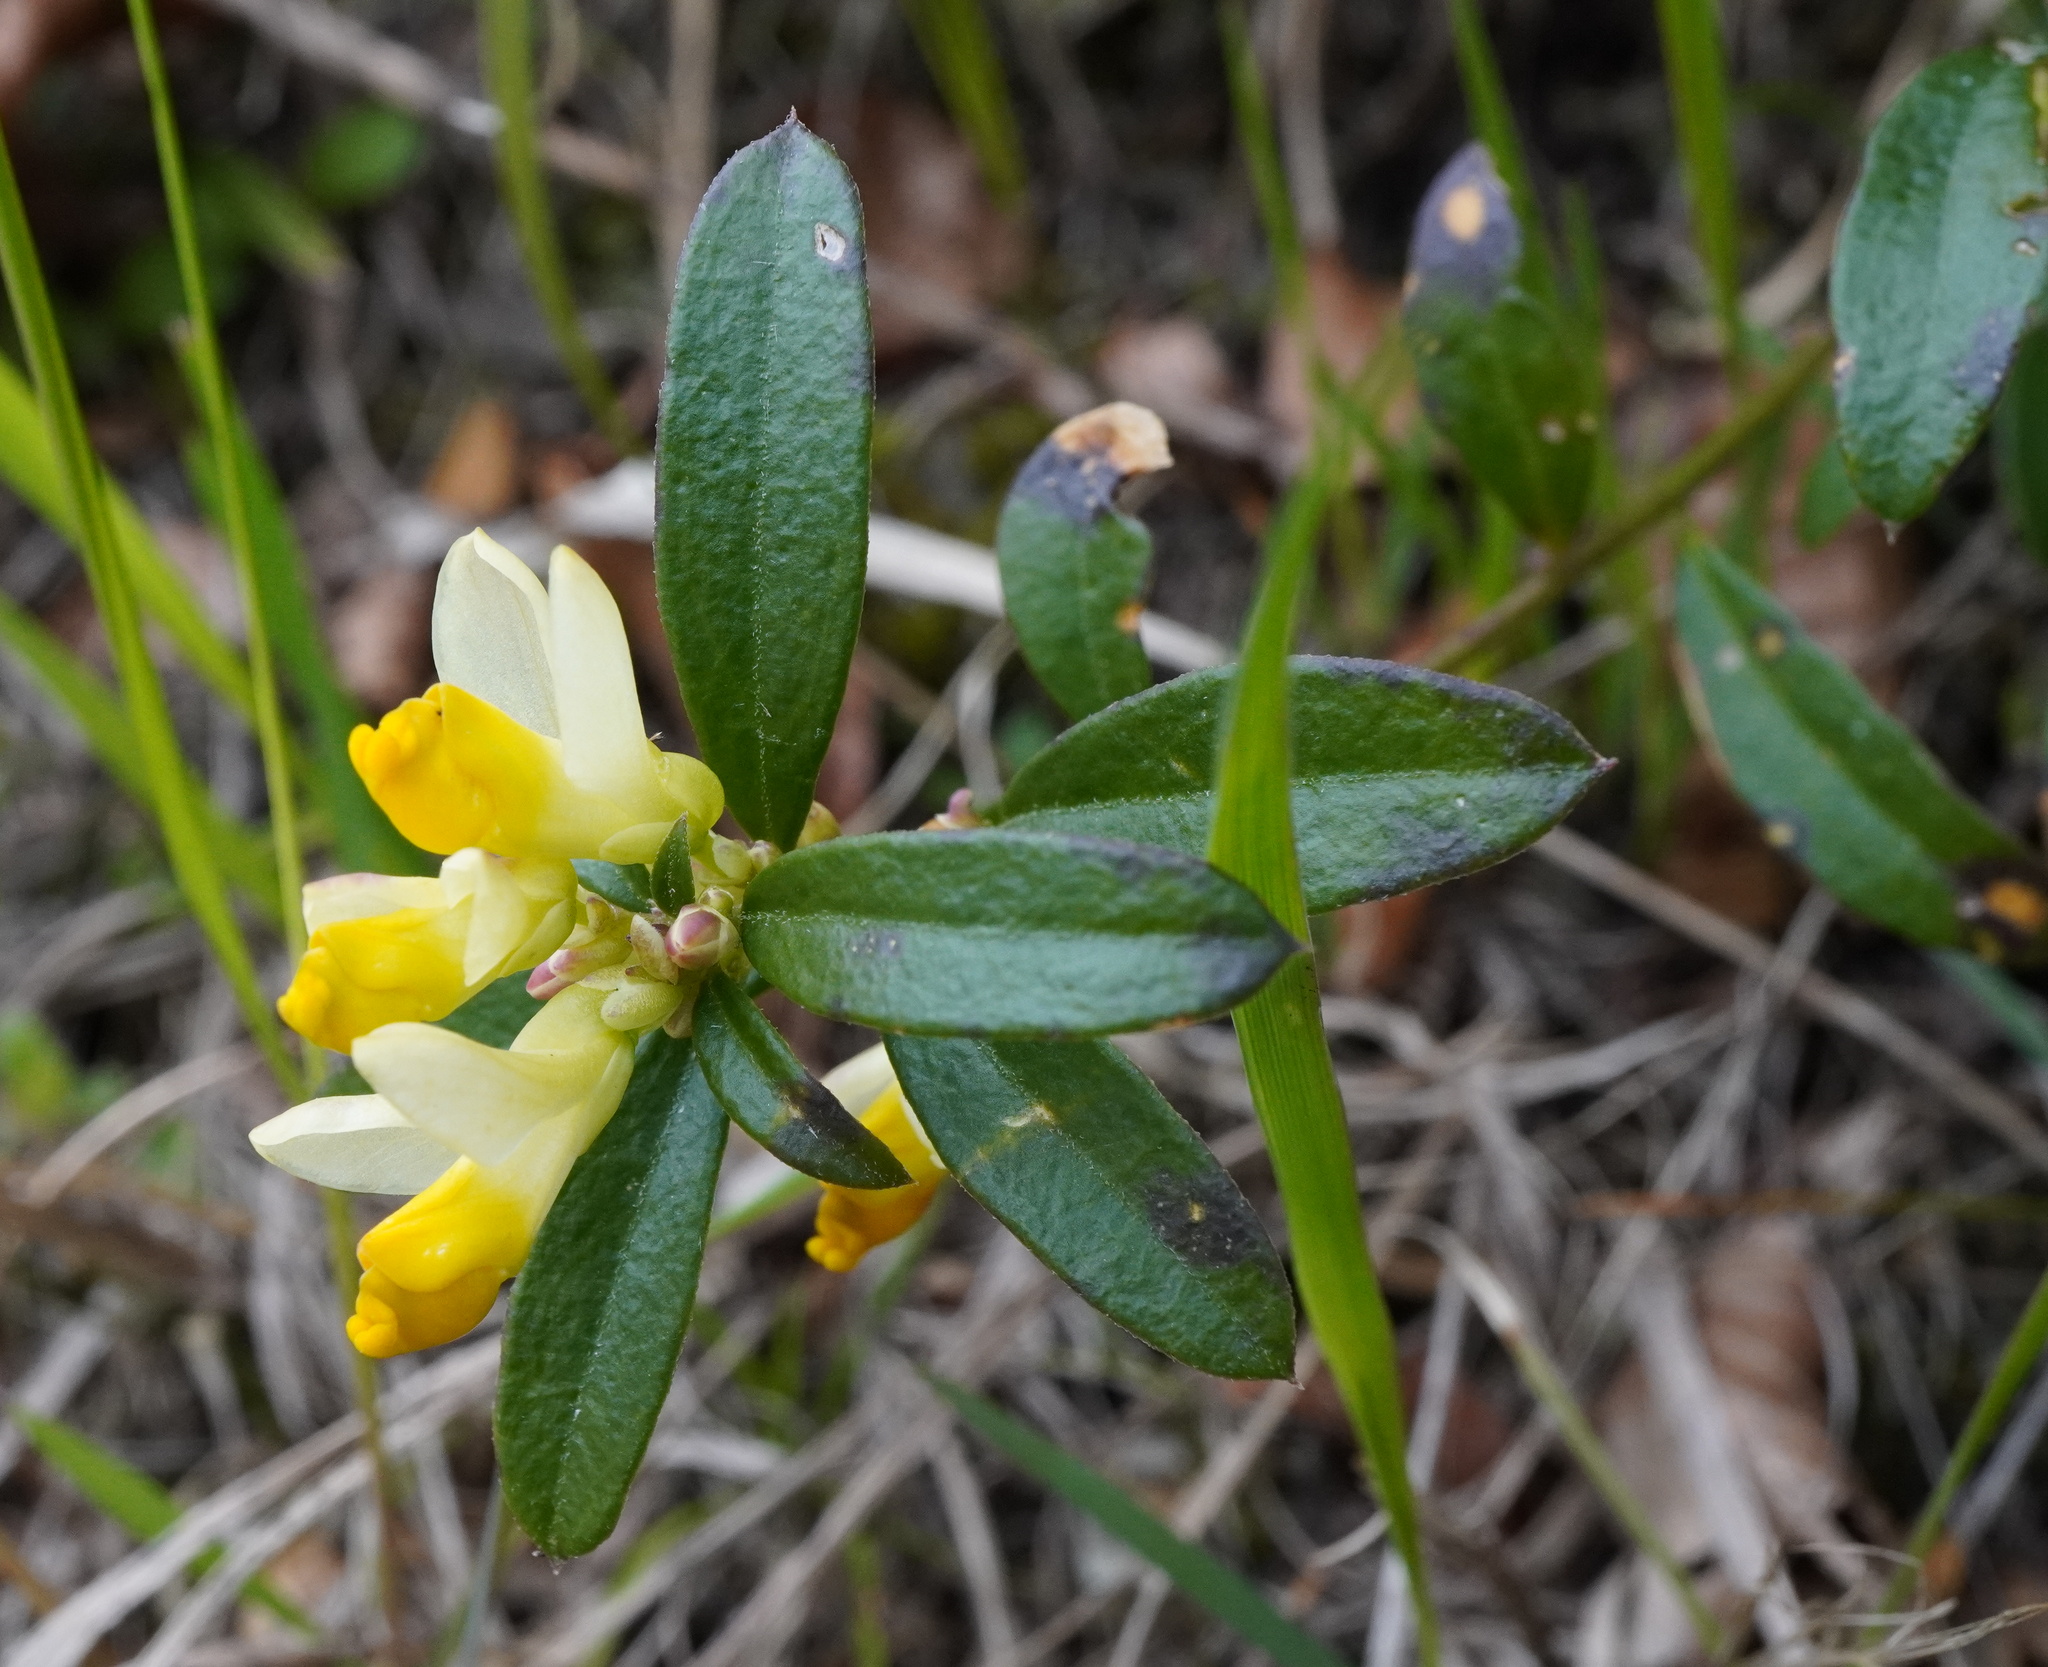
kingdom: Plantae
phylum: Tracheophyta
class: Magnoliopsida
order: Fabales
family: Polygalaceae
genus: Polygaloides
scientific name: Polygaloides chamaebuxus
